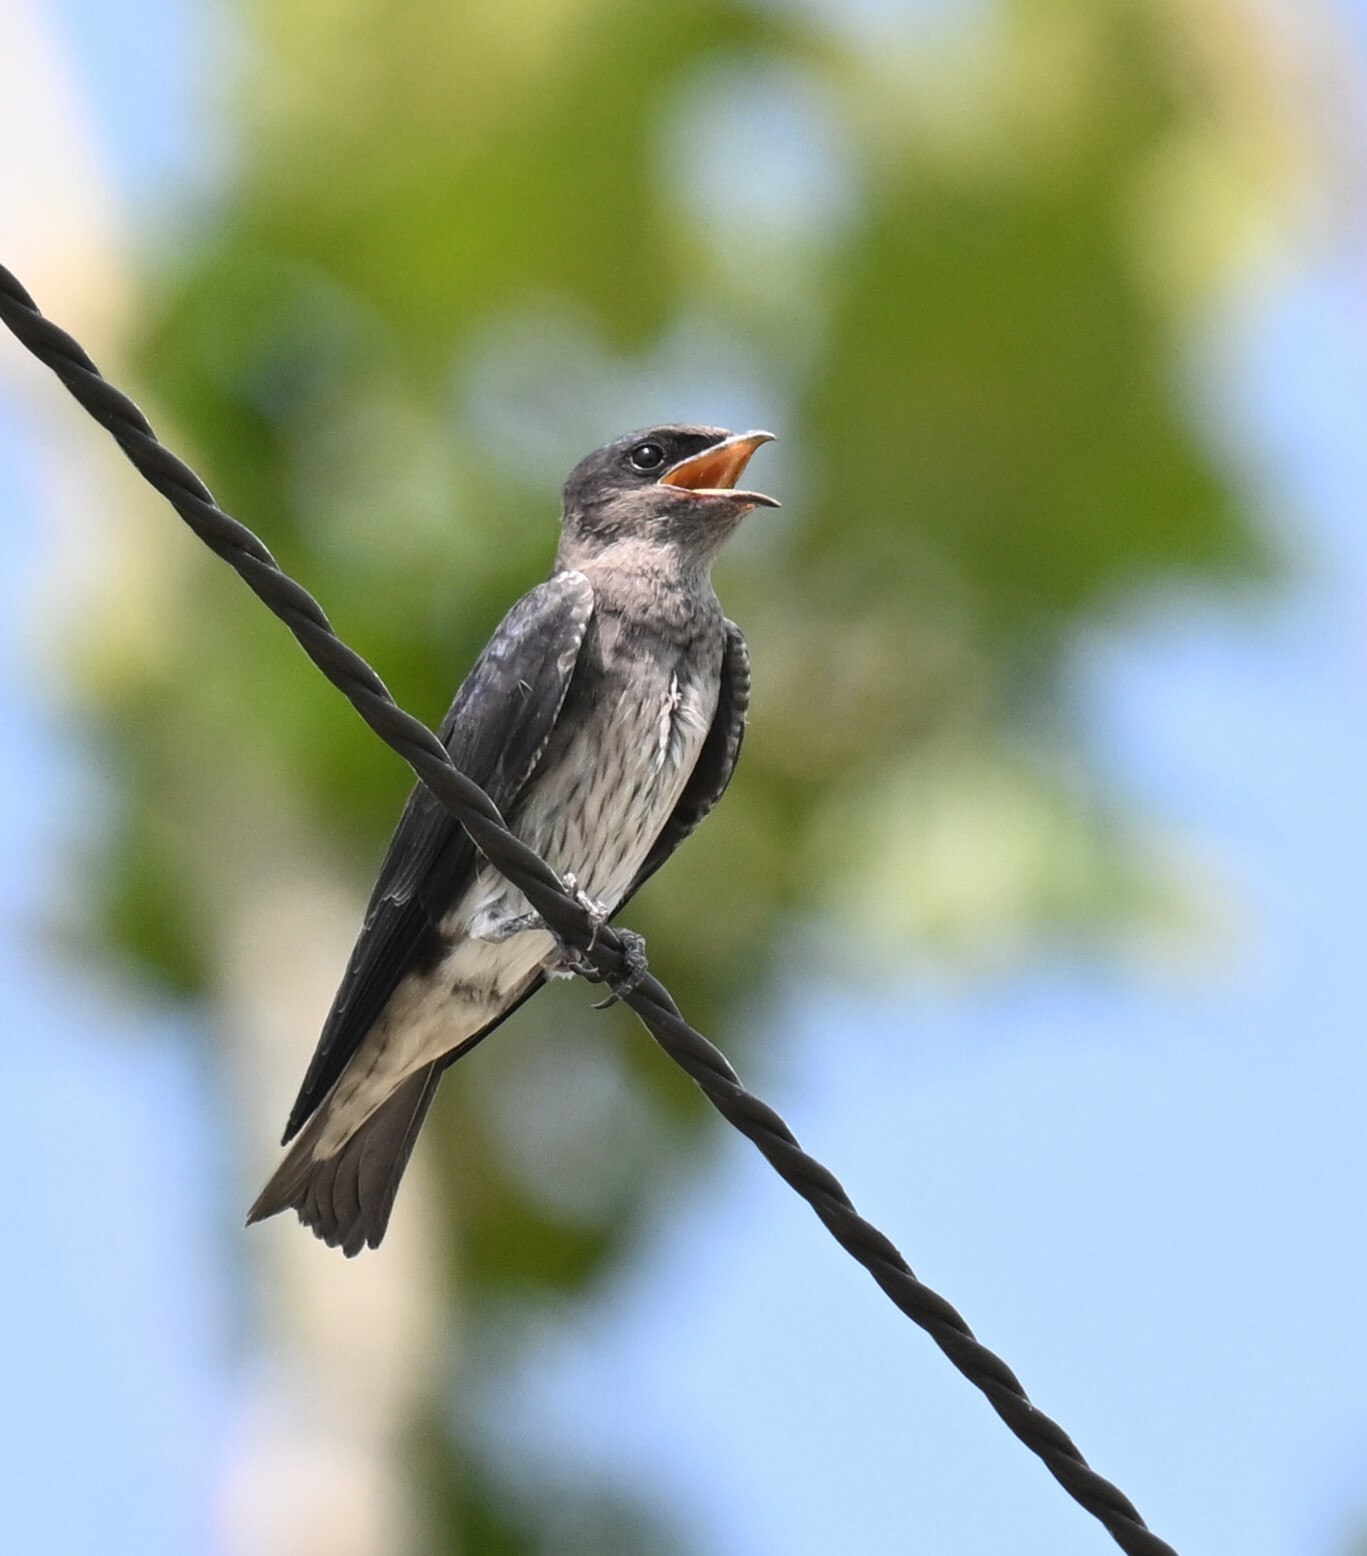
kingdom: Animalia
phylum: Chordata
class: Aves
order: Passeriformes
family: Hirundinidae
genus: Progne
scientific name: Progne subis
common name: Purple martin
